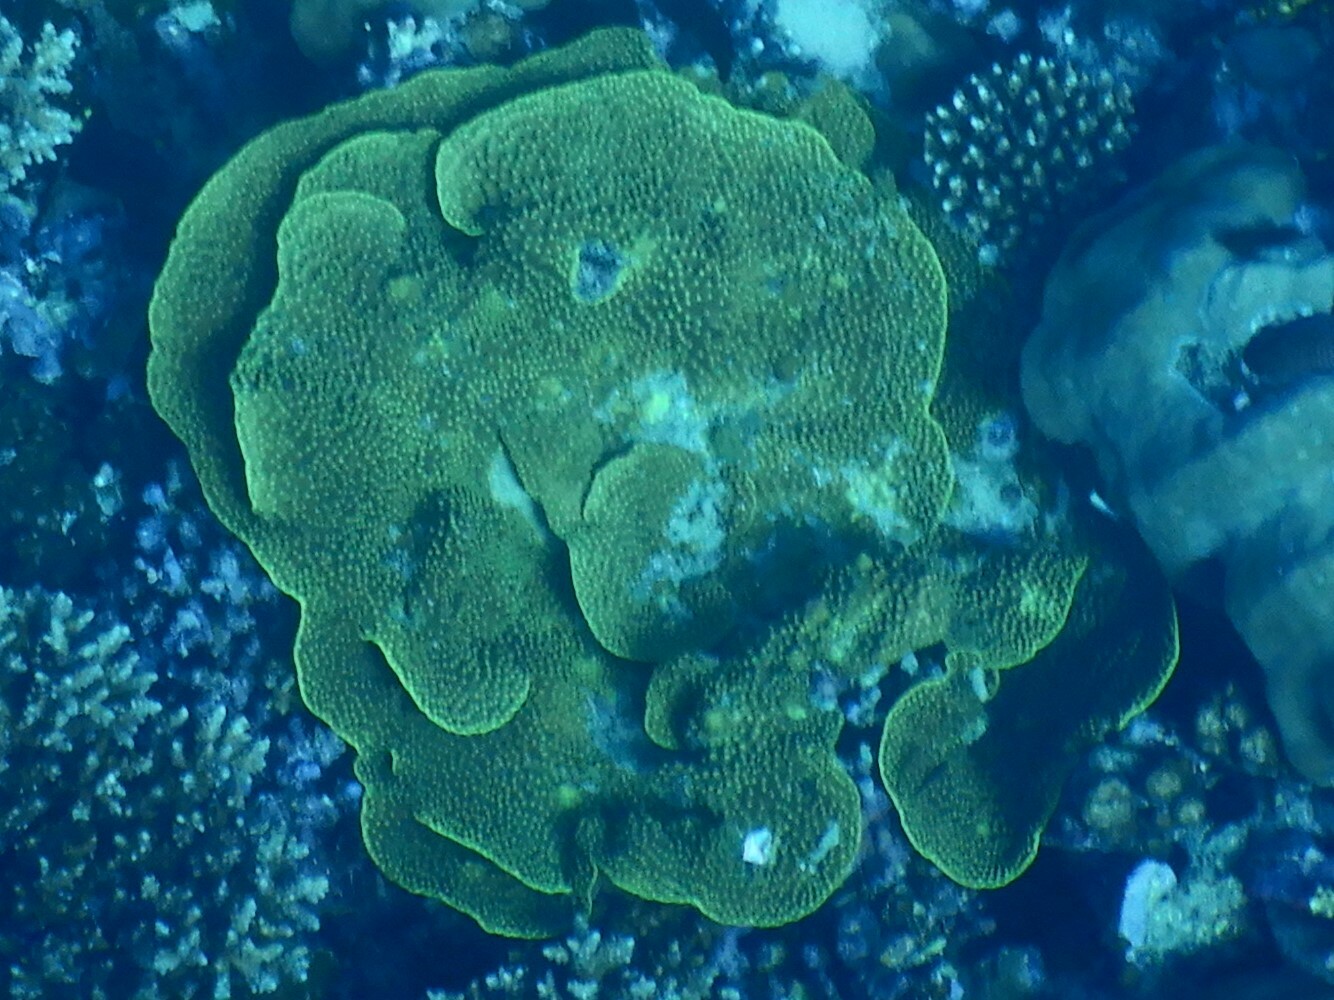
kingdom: Animalia
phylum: Cnidaria
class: Anthozoa
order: Scleractinia
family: Dendrophylliidae
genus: Turbinaria
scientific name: Turbinaria reniformis
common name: Disc coral
